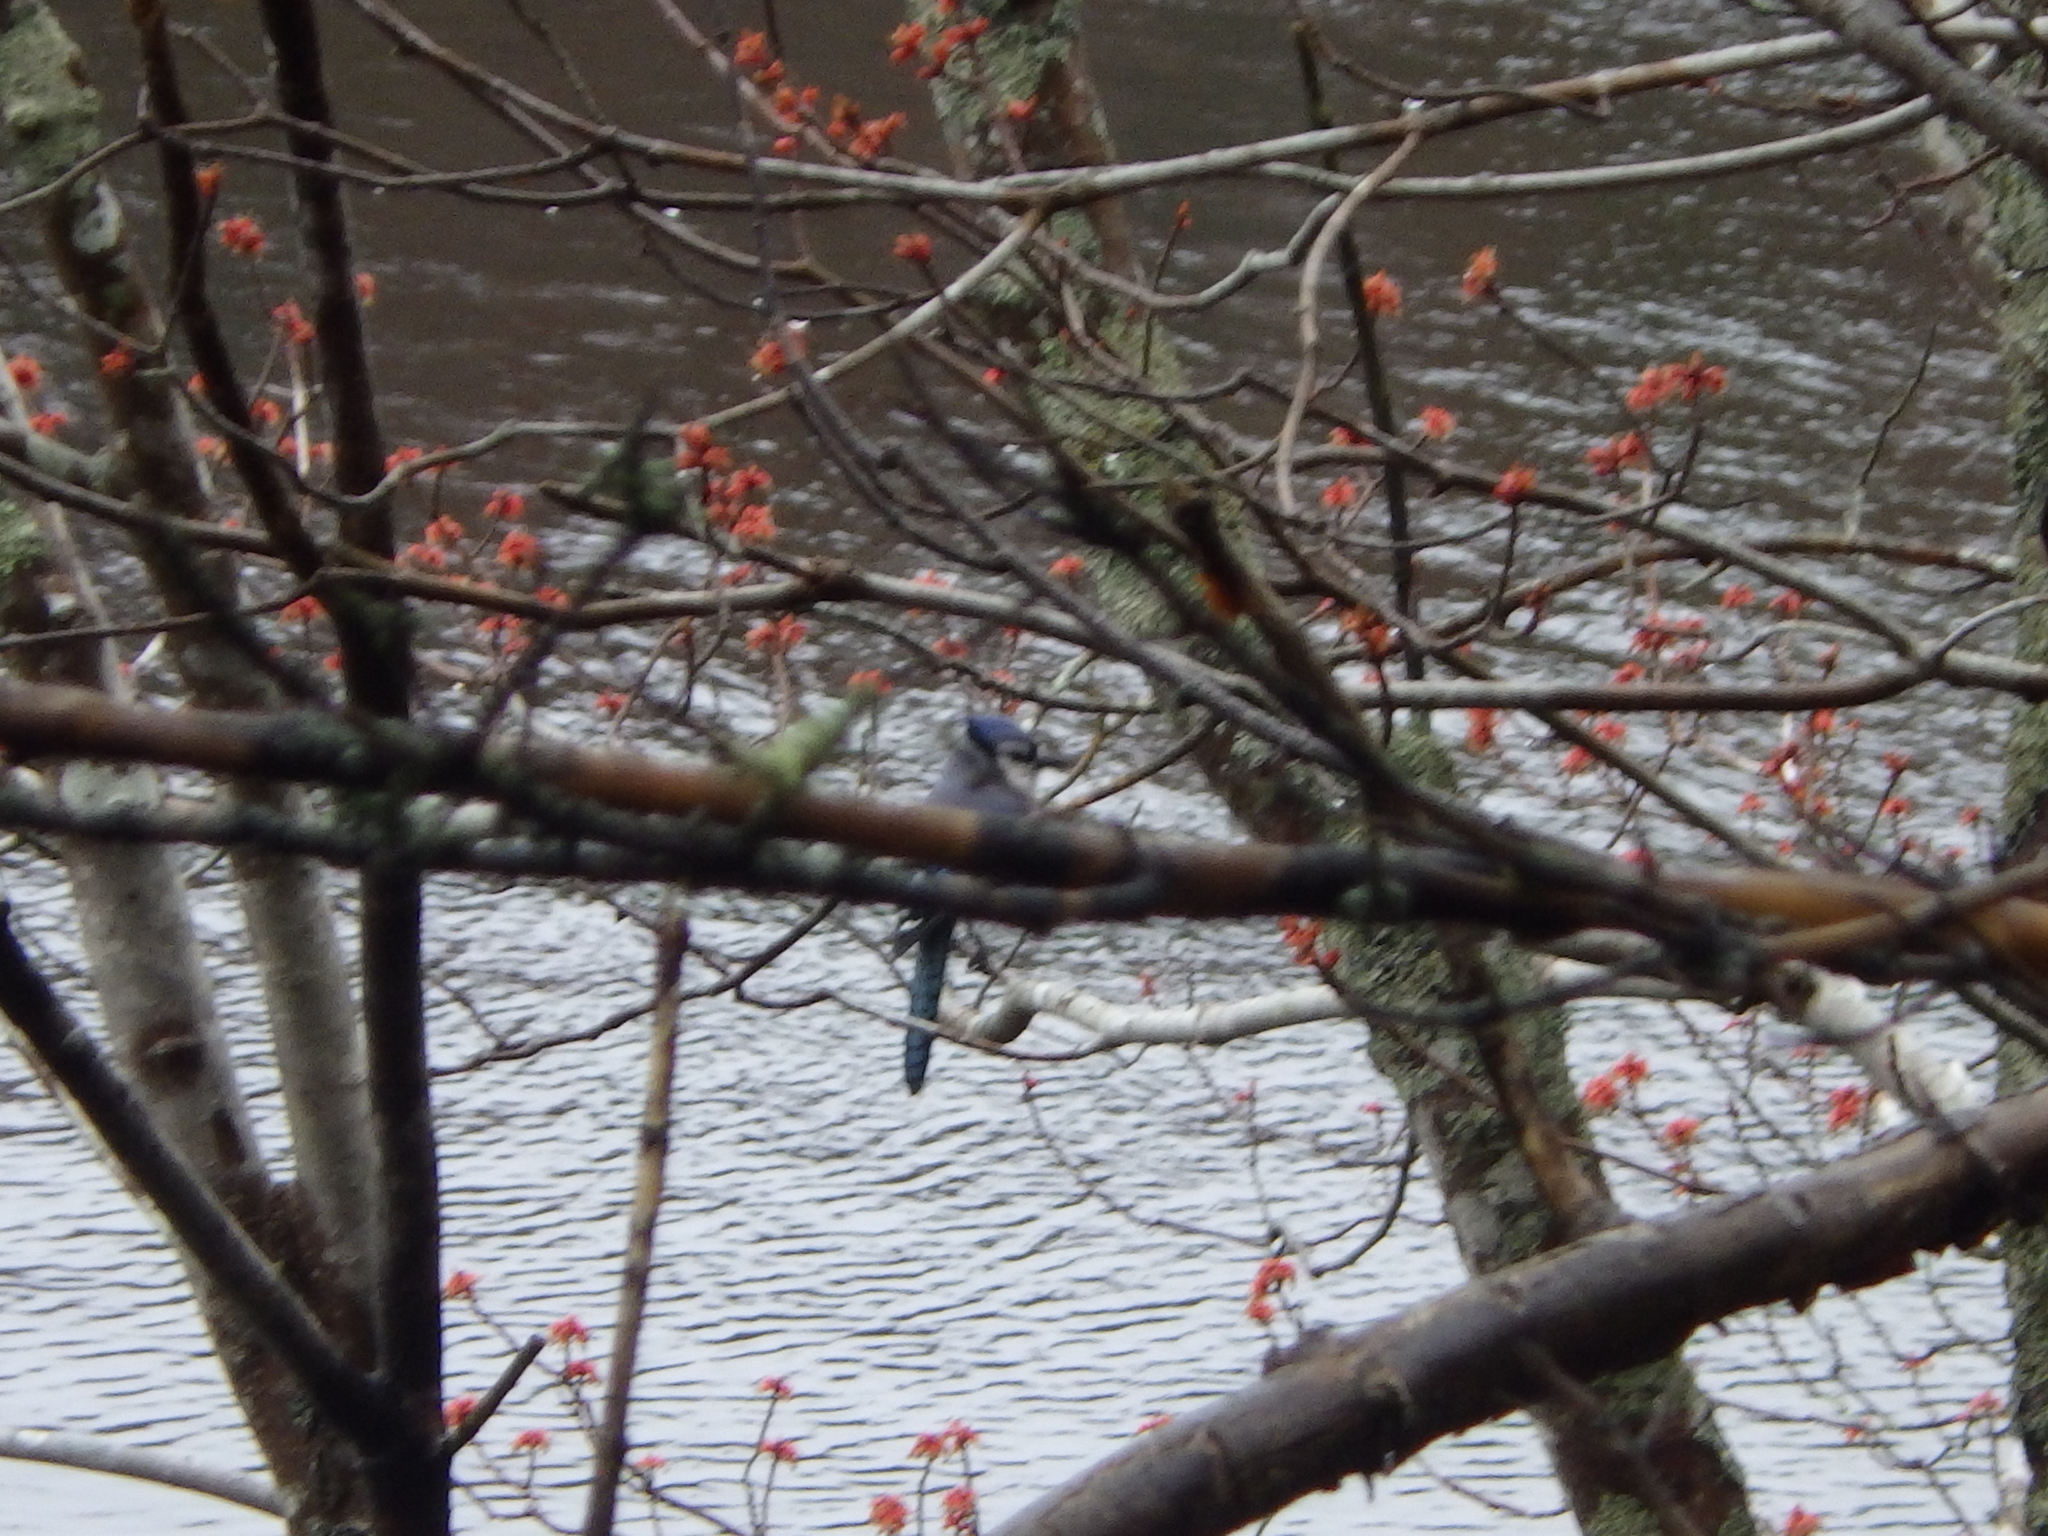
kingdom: Animalia
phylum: Chordata
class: Aves
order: Passeriformes
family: Corvidae
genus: Cyanocitta
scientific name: Cyanocitta cristata
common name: Blue jay
